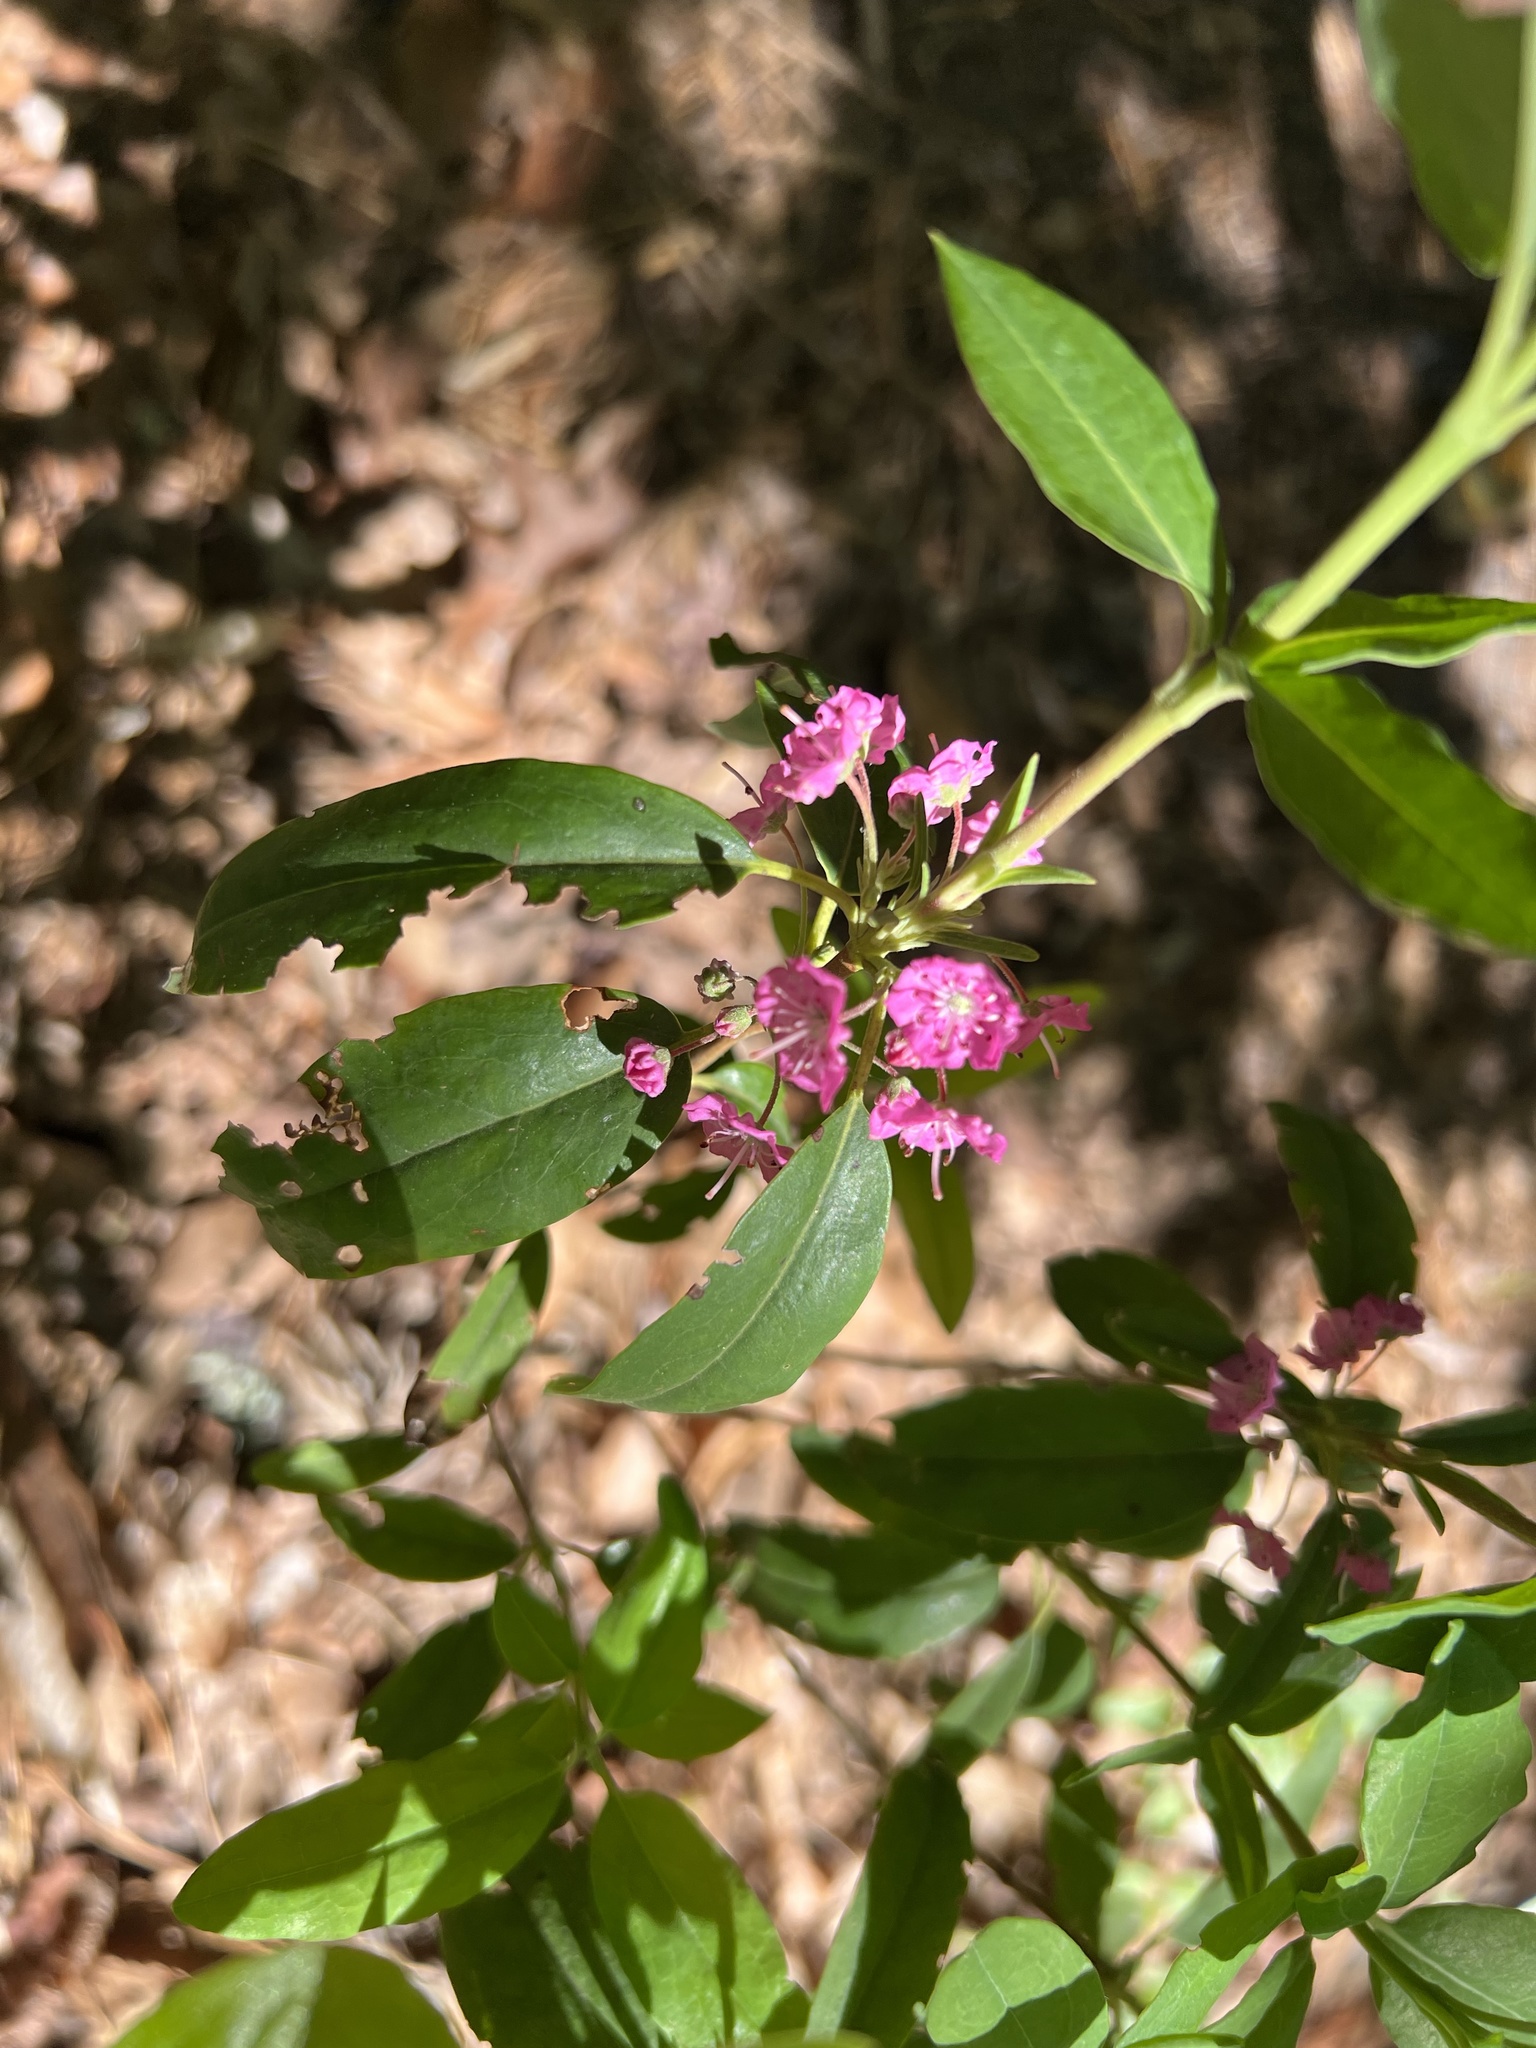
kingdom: Plantae
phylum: Tracheophyta
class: Magnoliopsida
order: Ericales
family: Ericaceae
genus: Kalmia
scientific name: Kalmia angustifolia
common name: Sheep-laurel
